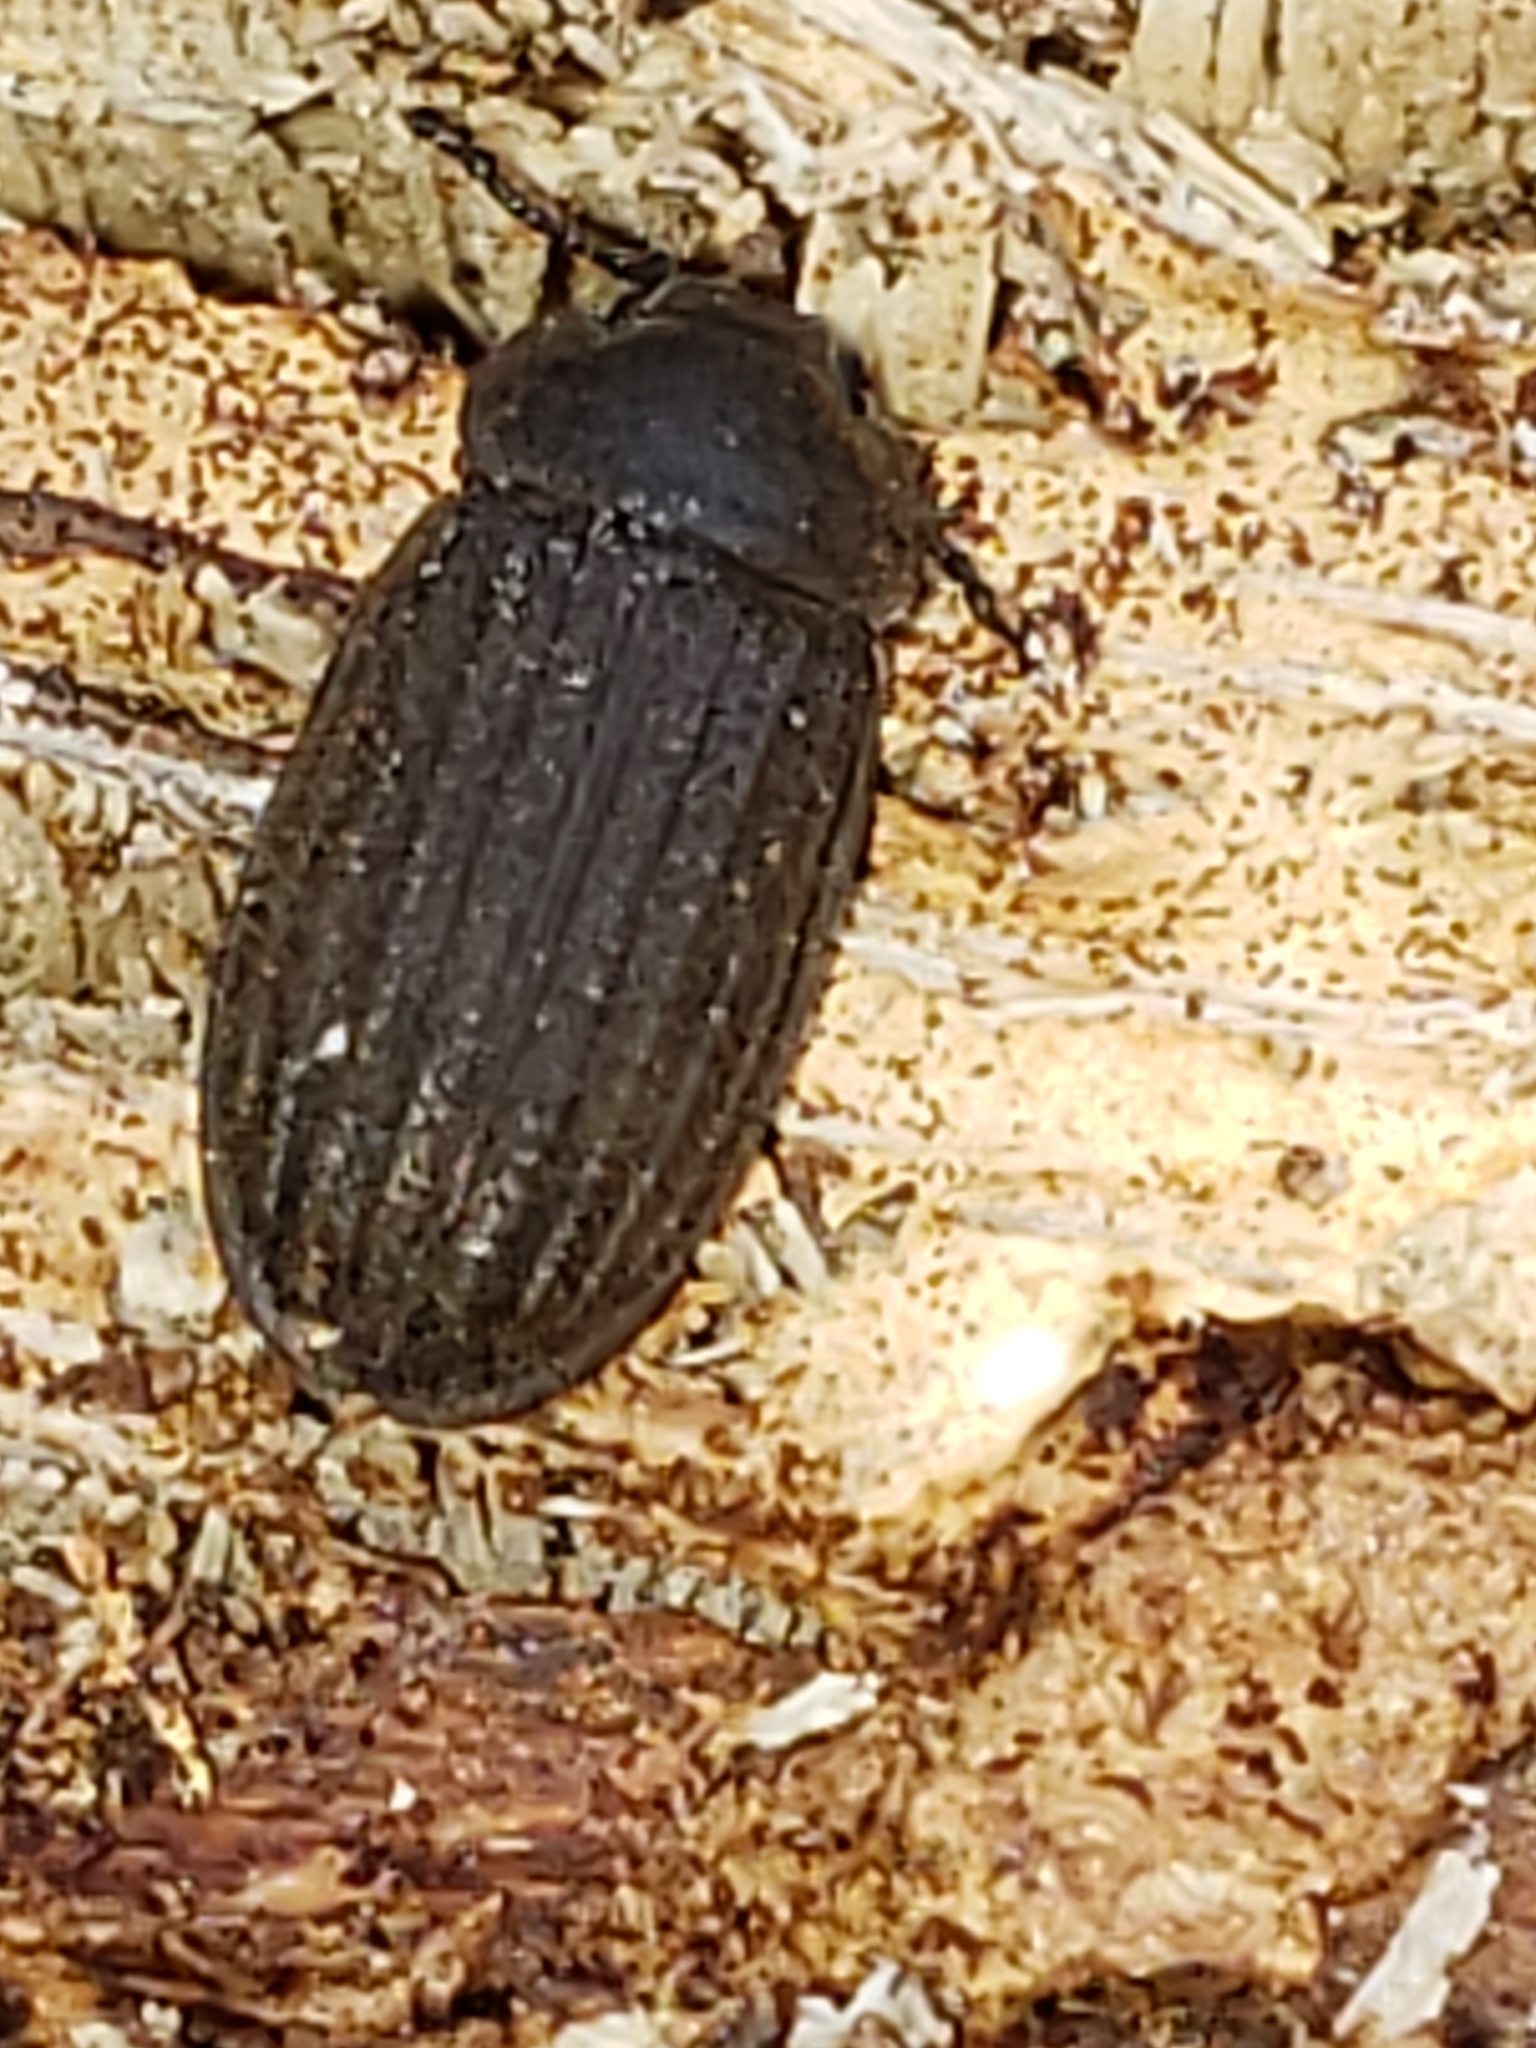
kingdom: Animalia
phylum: Arthropoda
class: Insecta
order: Coleoptera
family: Trogossitidae
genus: Grynocharis
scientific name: Grynocharis quadrilineata
